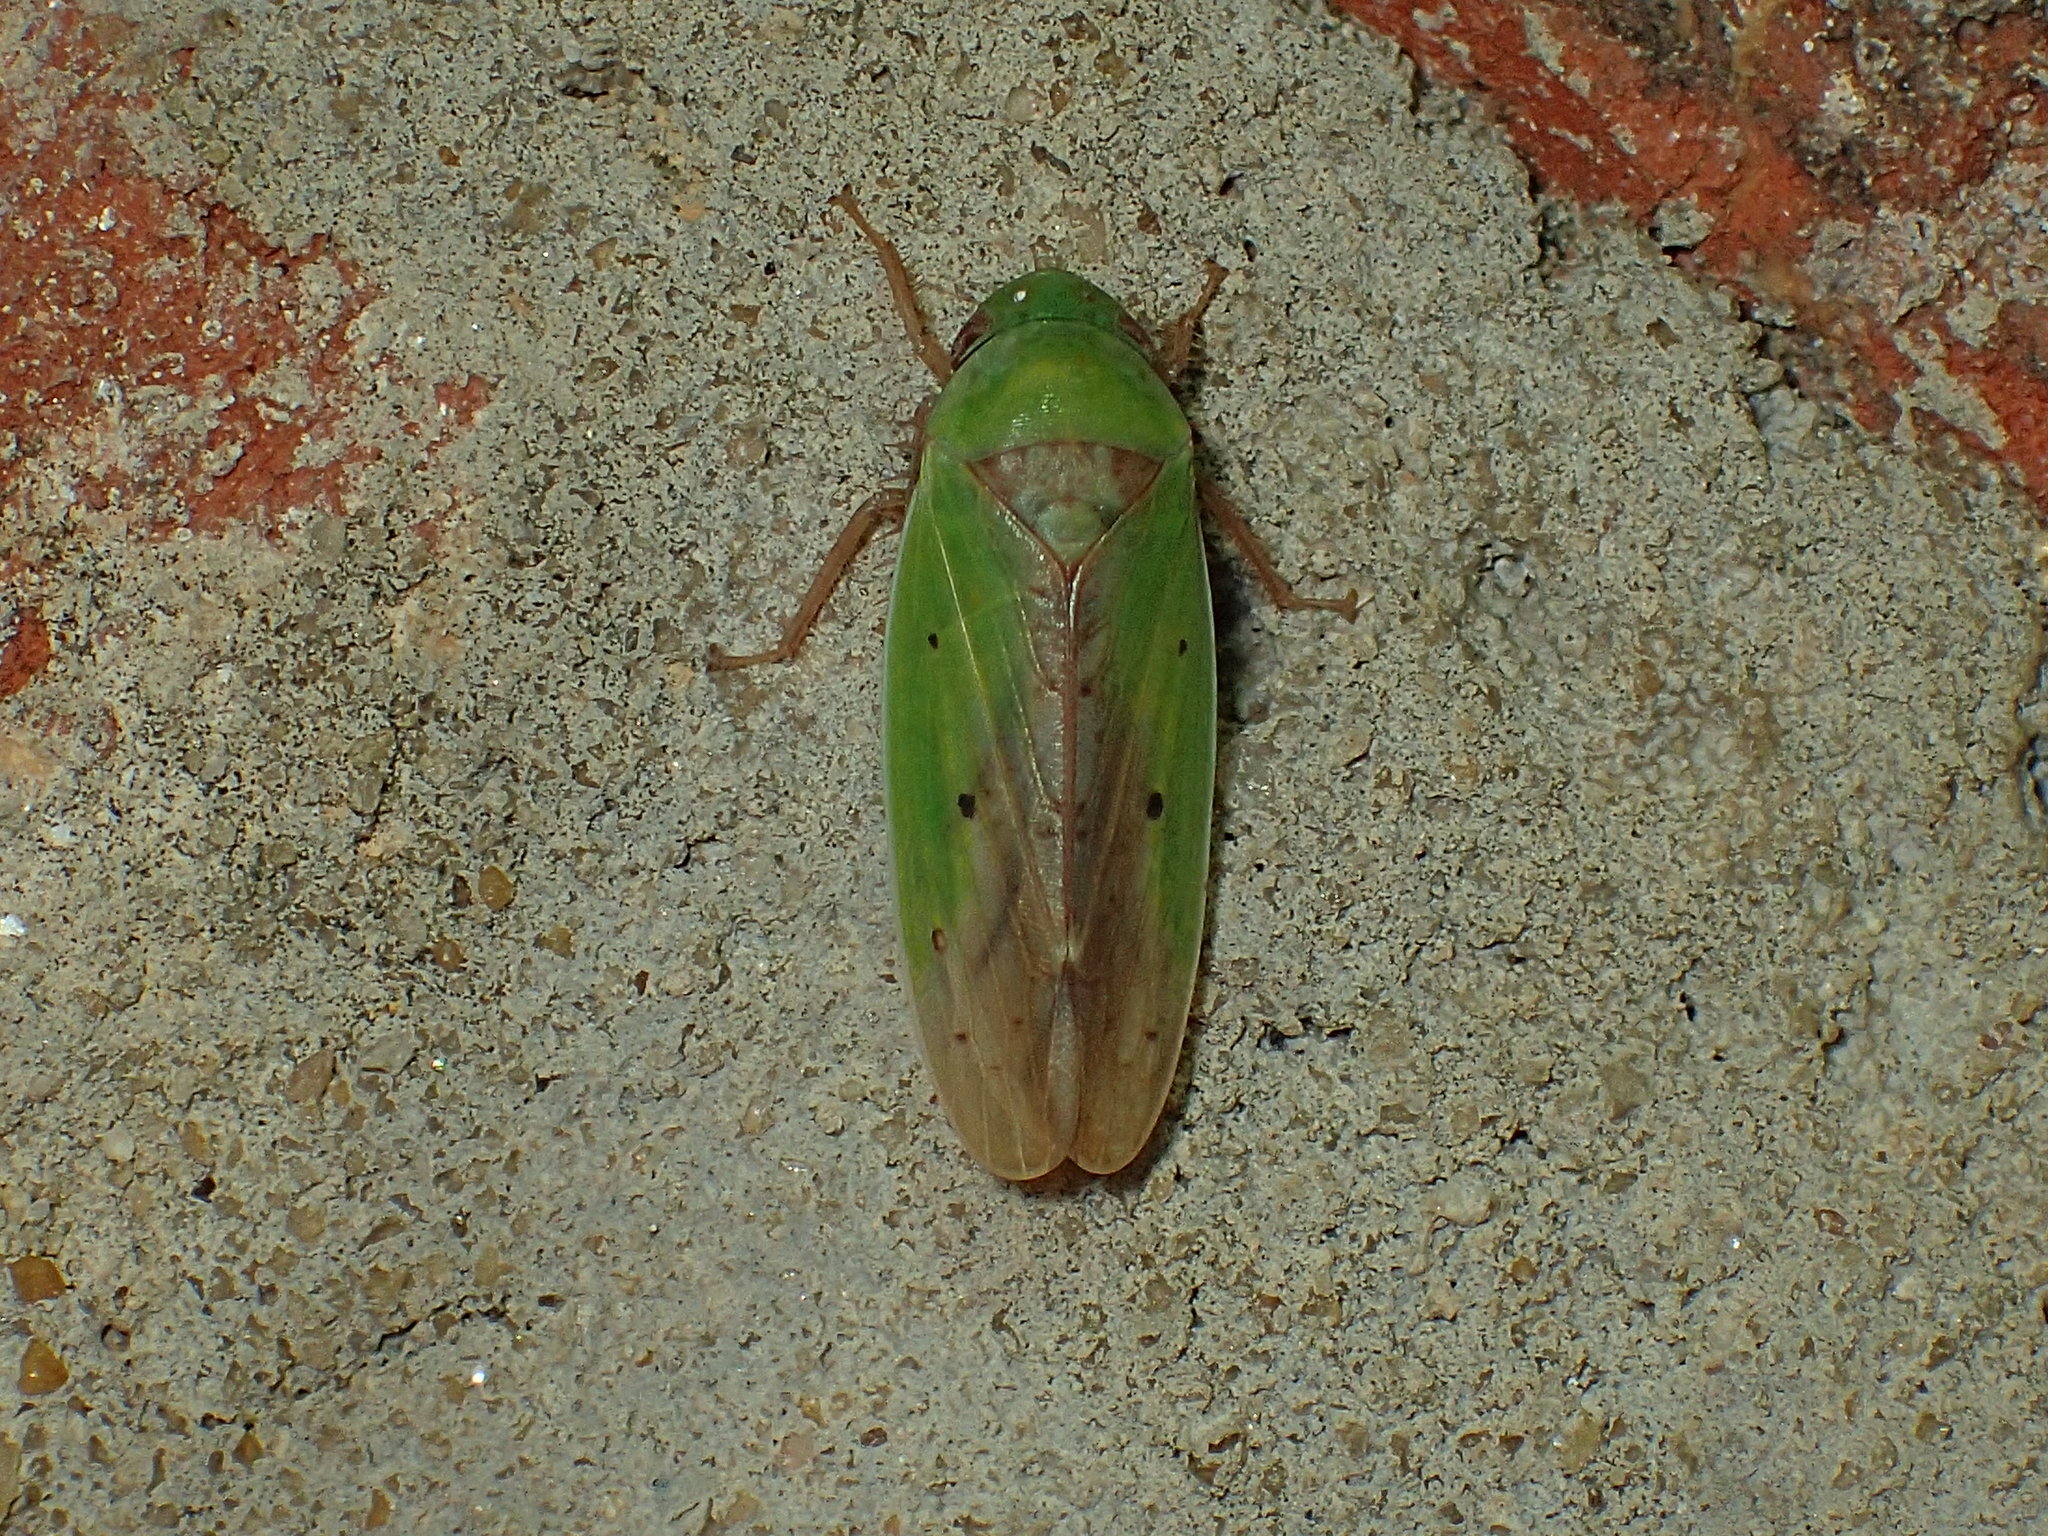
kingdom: Animalia
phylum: Arthropoda
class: Insecta
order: Hemiptera
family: Cicadellidae
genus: Ponana
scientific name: Ponana pectoralis
